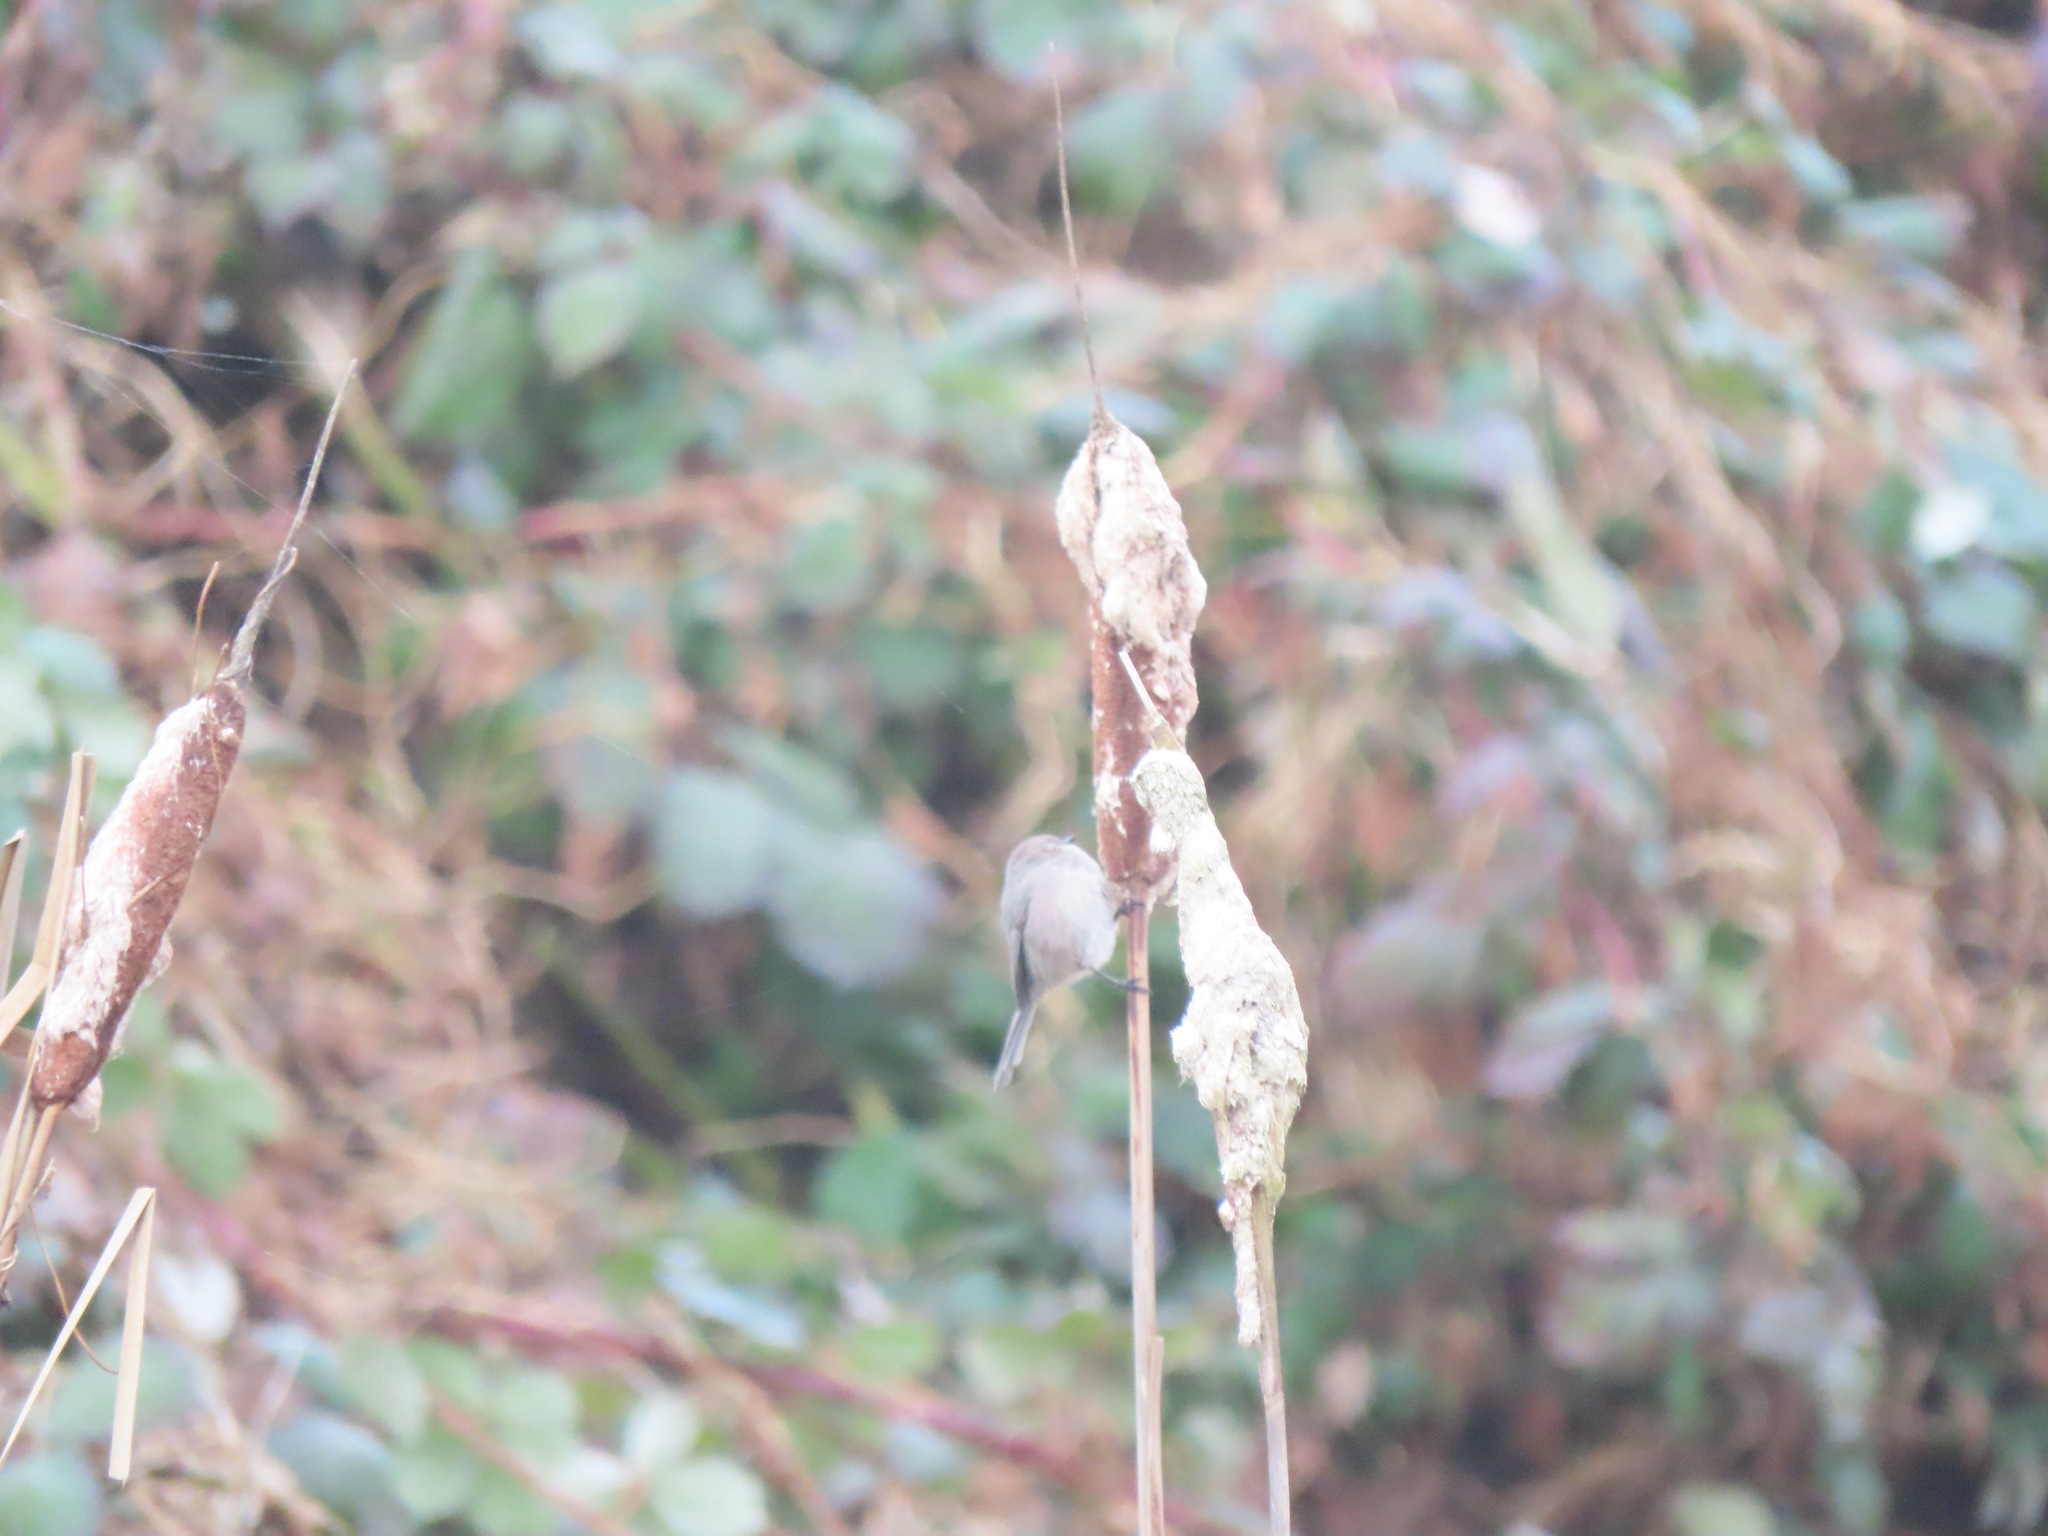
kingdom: Animalia
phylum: Chordata
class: Aves
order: Passeriformes
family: Aegithalidae
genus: Psaltriparus
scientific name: Psaltriparus minimus
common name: American bushtit
